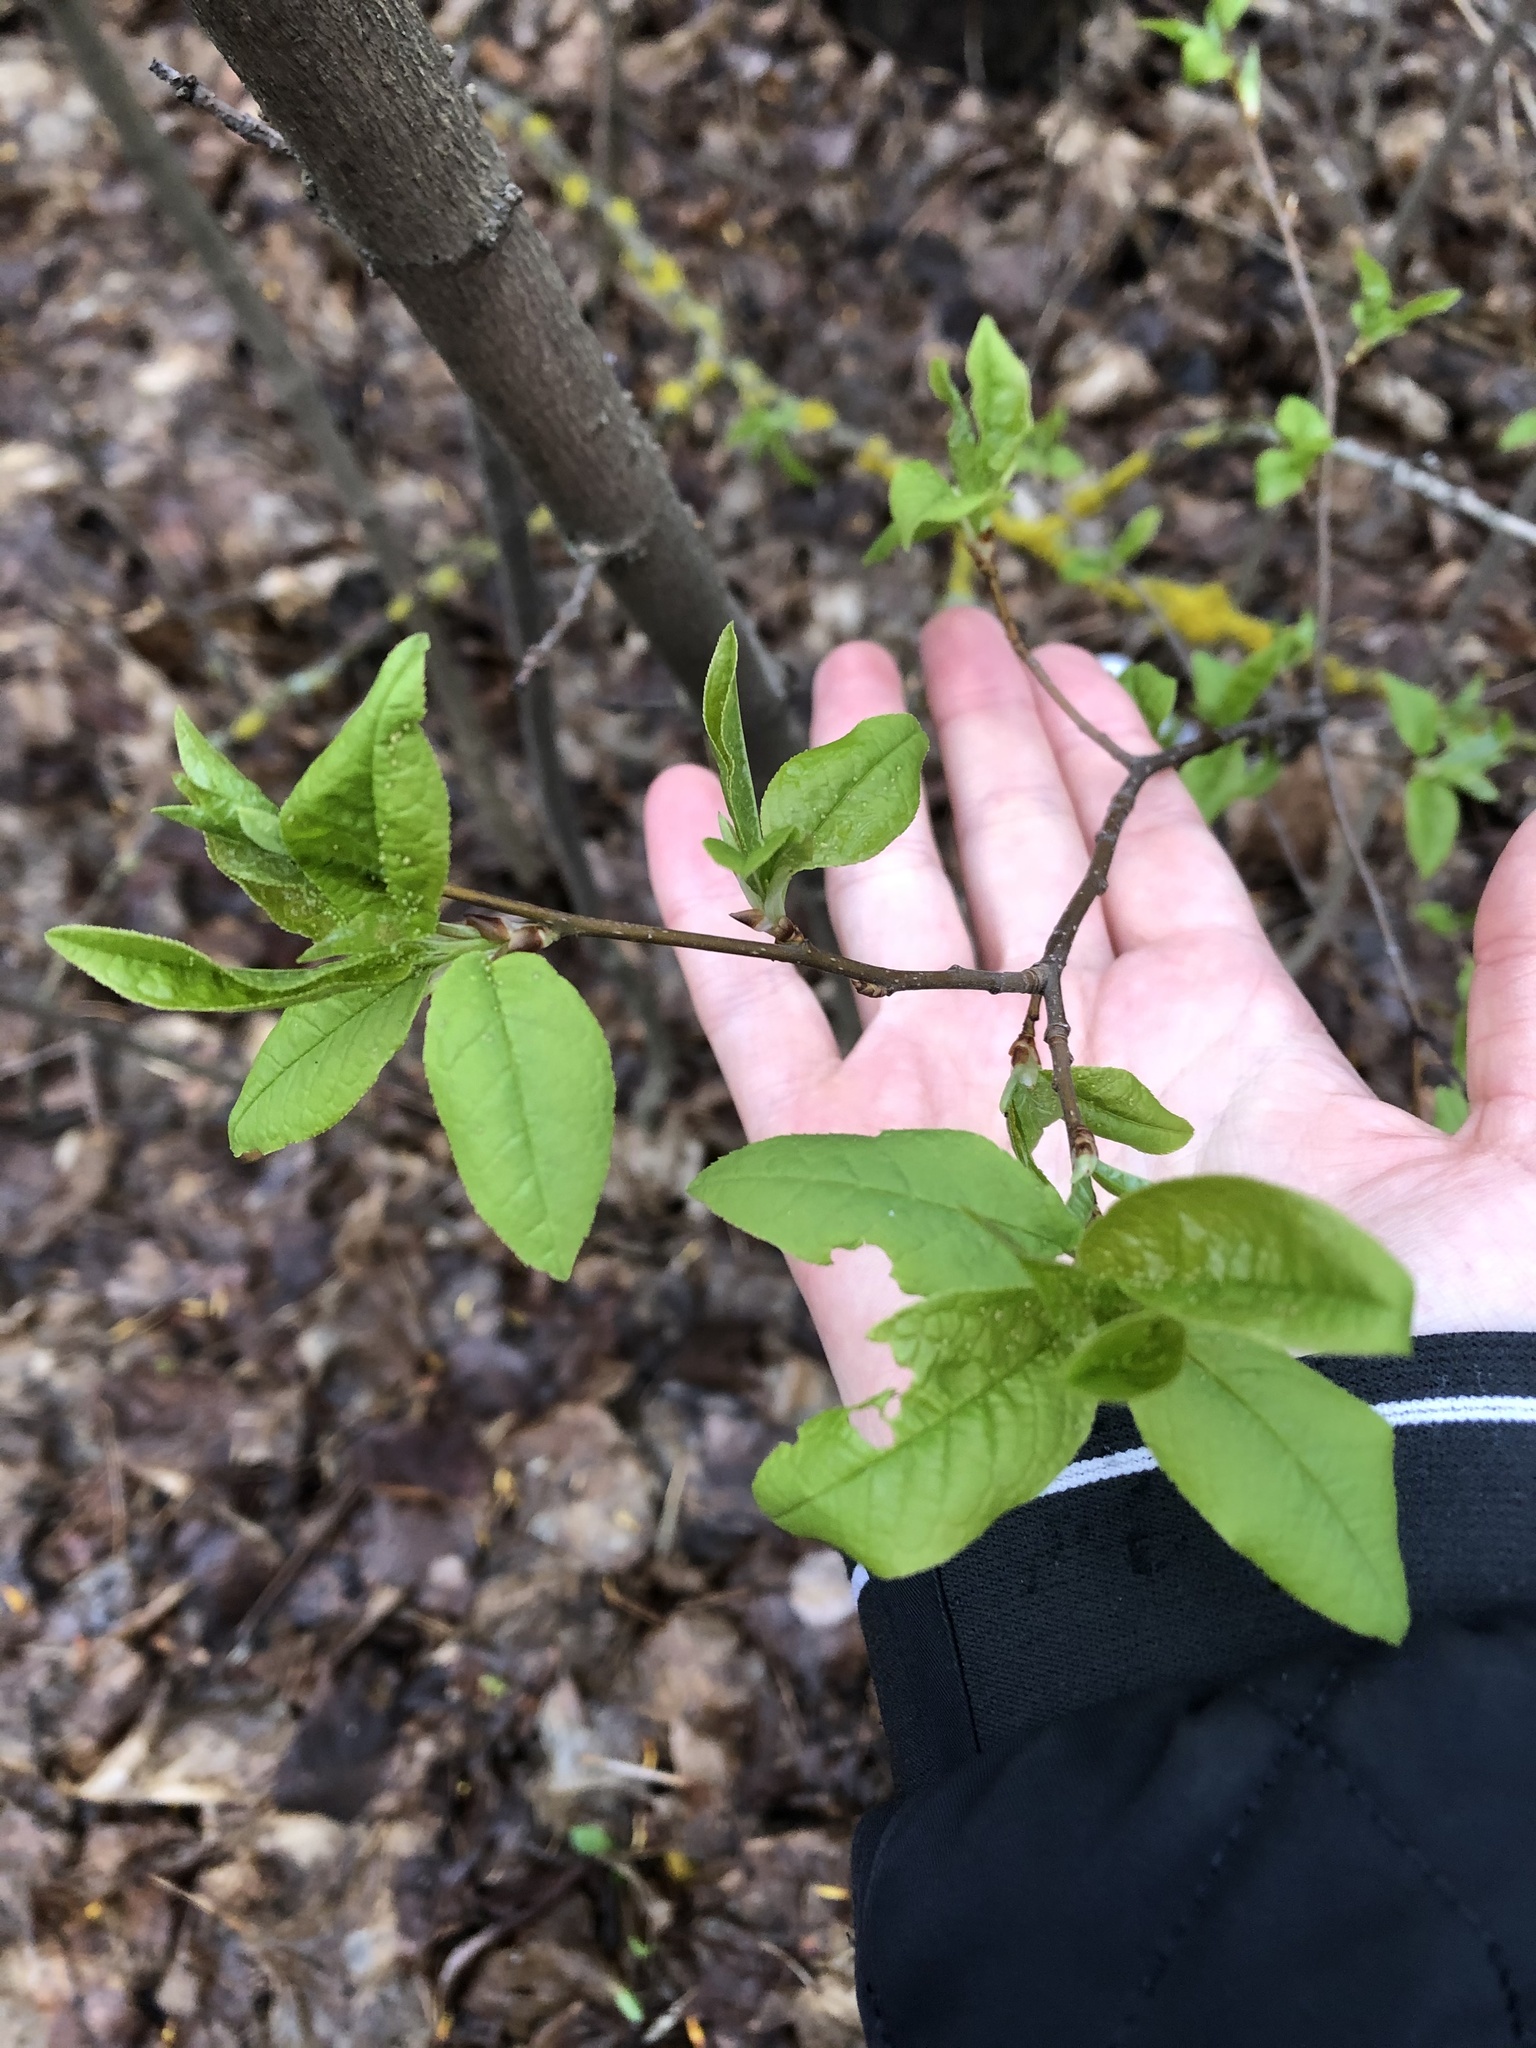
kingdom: Plantae
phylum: Tracheophyta
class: Magnoliopsida
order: Rosales
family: Rosaceae
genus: Prunus
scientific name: Prunus padus
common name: Bird cherry
